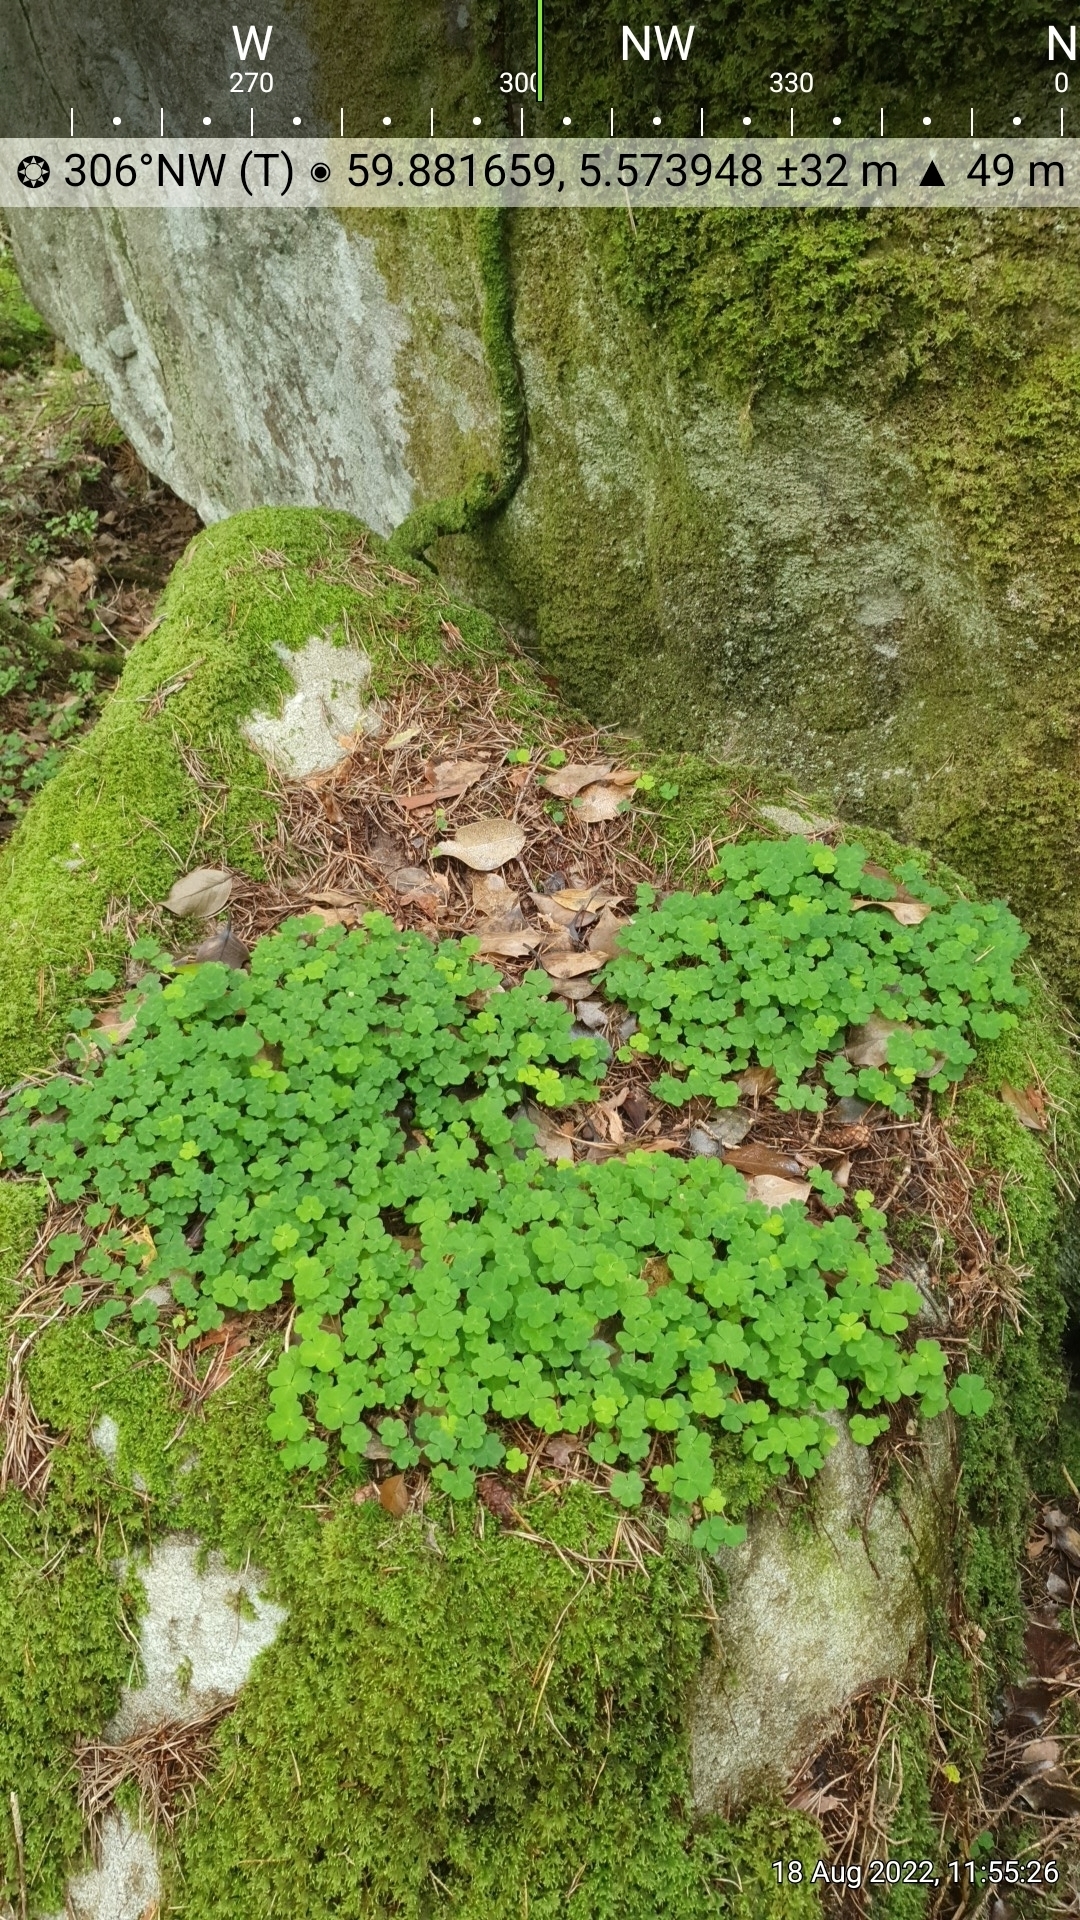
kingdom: Plantae
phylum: Tracheophyta
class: Magnoliopsida
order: Oxalidales
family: Oxalidaceae
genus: Oxalis
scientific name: Oxalis acetosella
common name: Wood-sorrel
